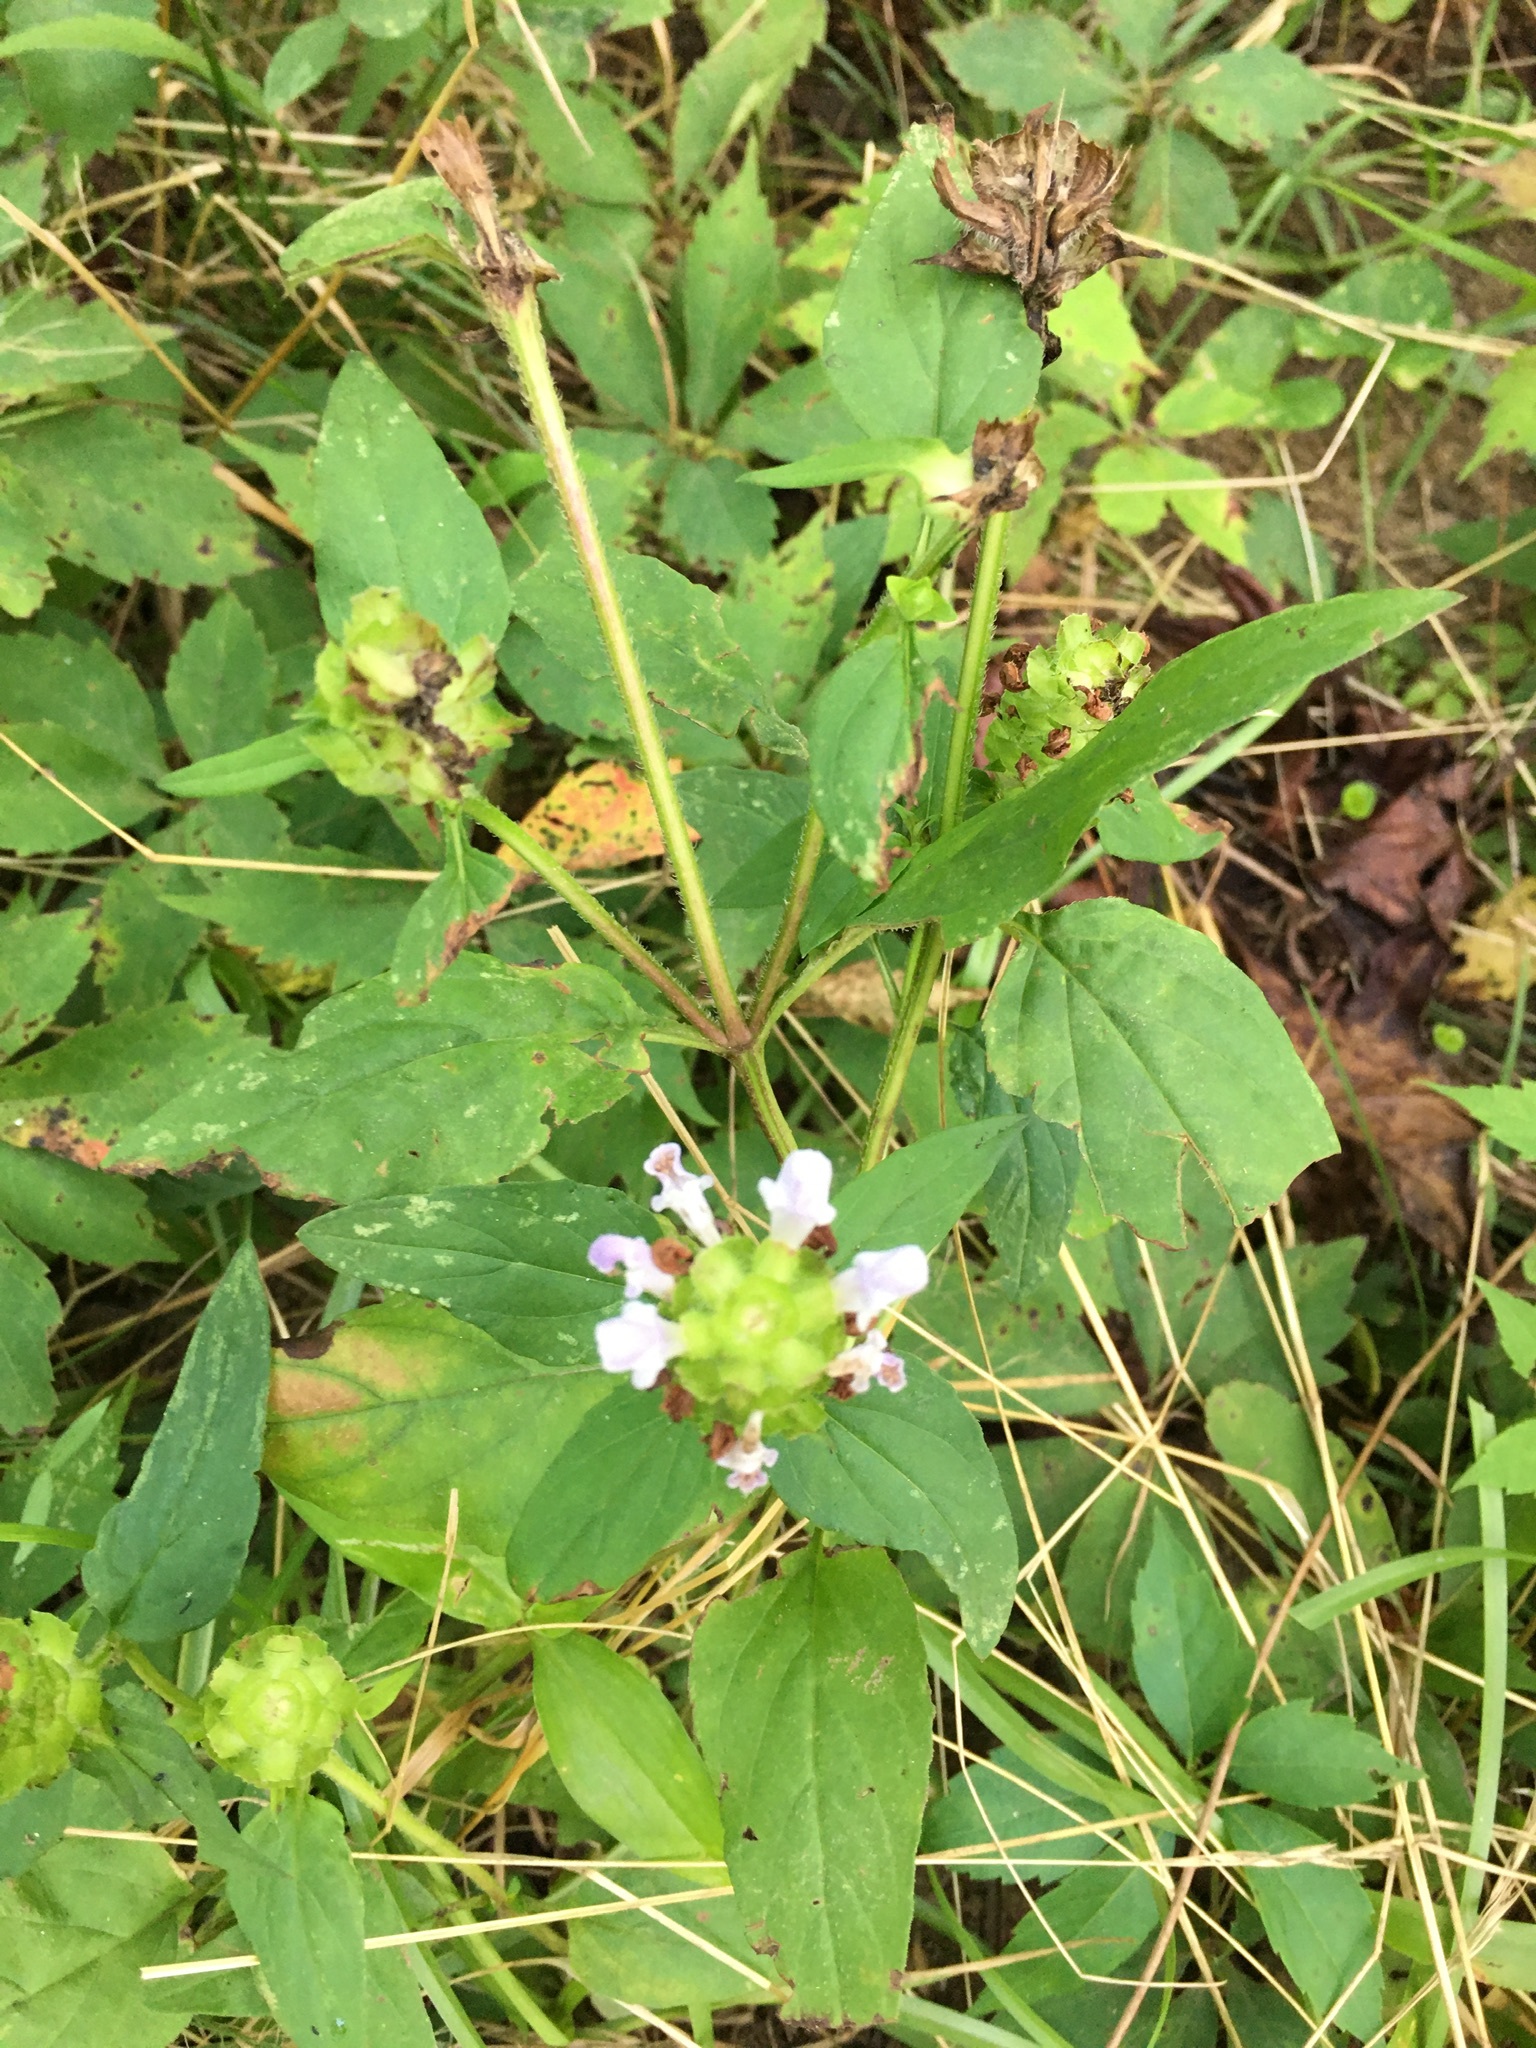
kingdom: Plantae
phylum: Tracheophyta
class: Magnoliopsida
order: Lamiales
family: Lamiaceae
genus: Prunella
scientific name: Prunella vulgaris
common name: Heal-all
